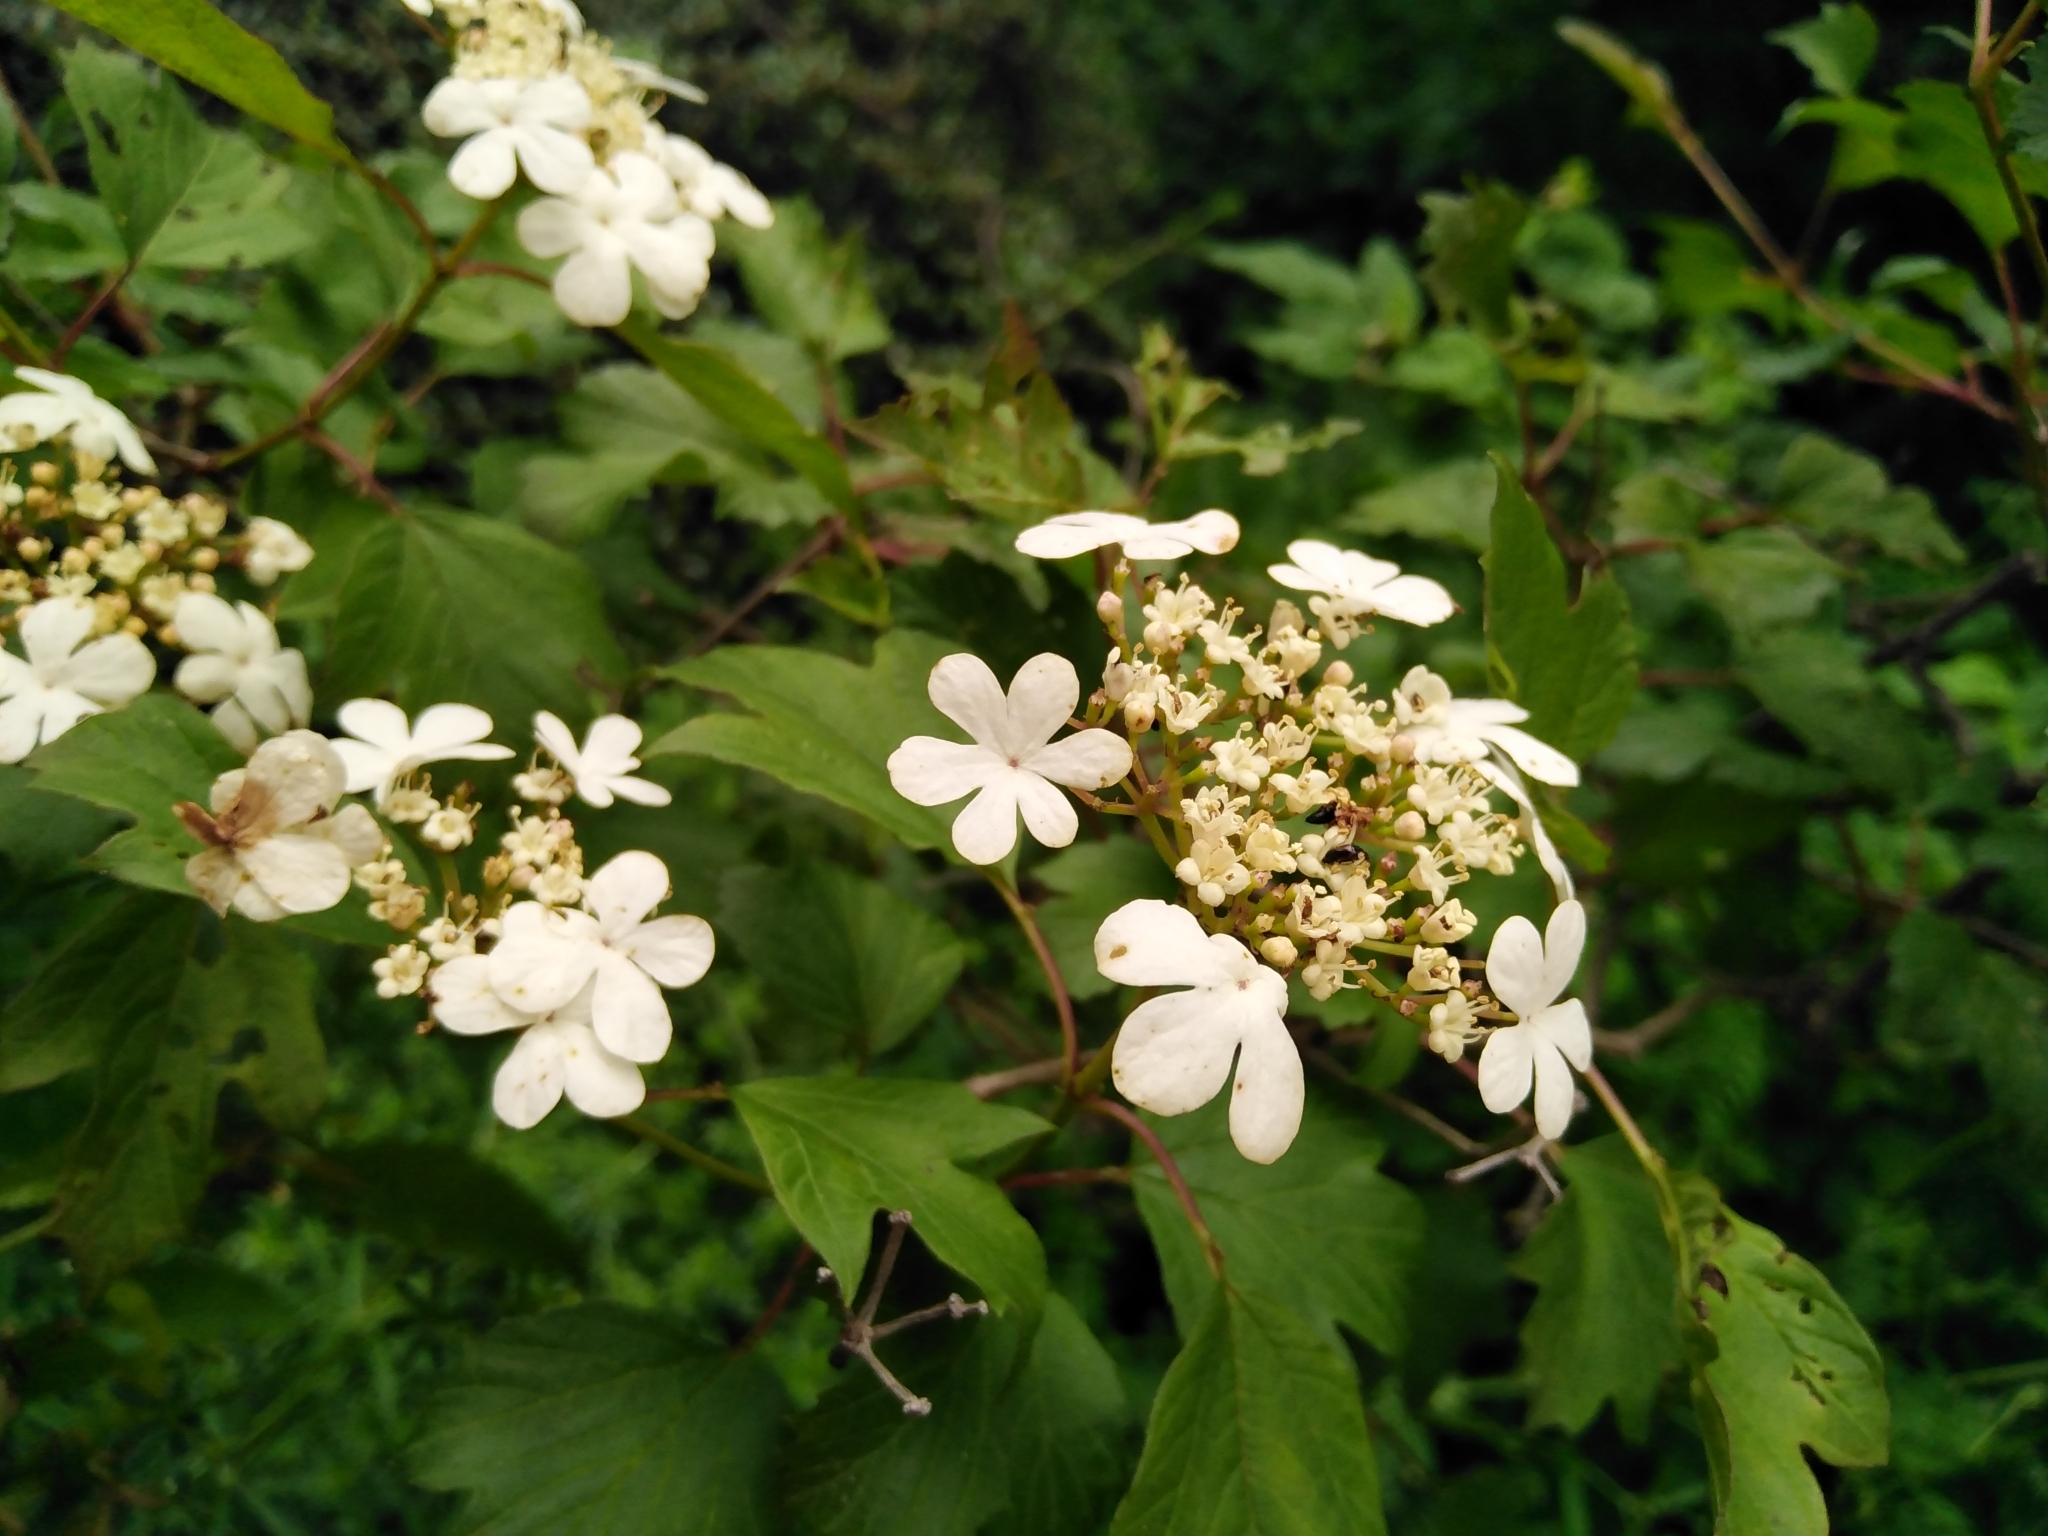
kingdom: Plantae
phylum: Tracheophyta
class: Magnoliopsida
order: Dipsacales
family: Viburnaceae
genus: Viburnum
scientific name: Viburnum opulus
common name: Guelder-rose
